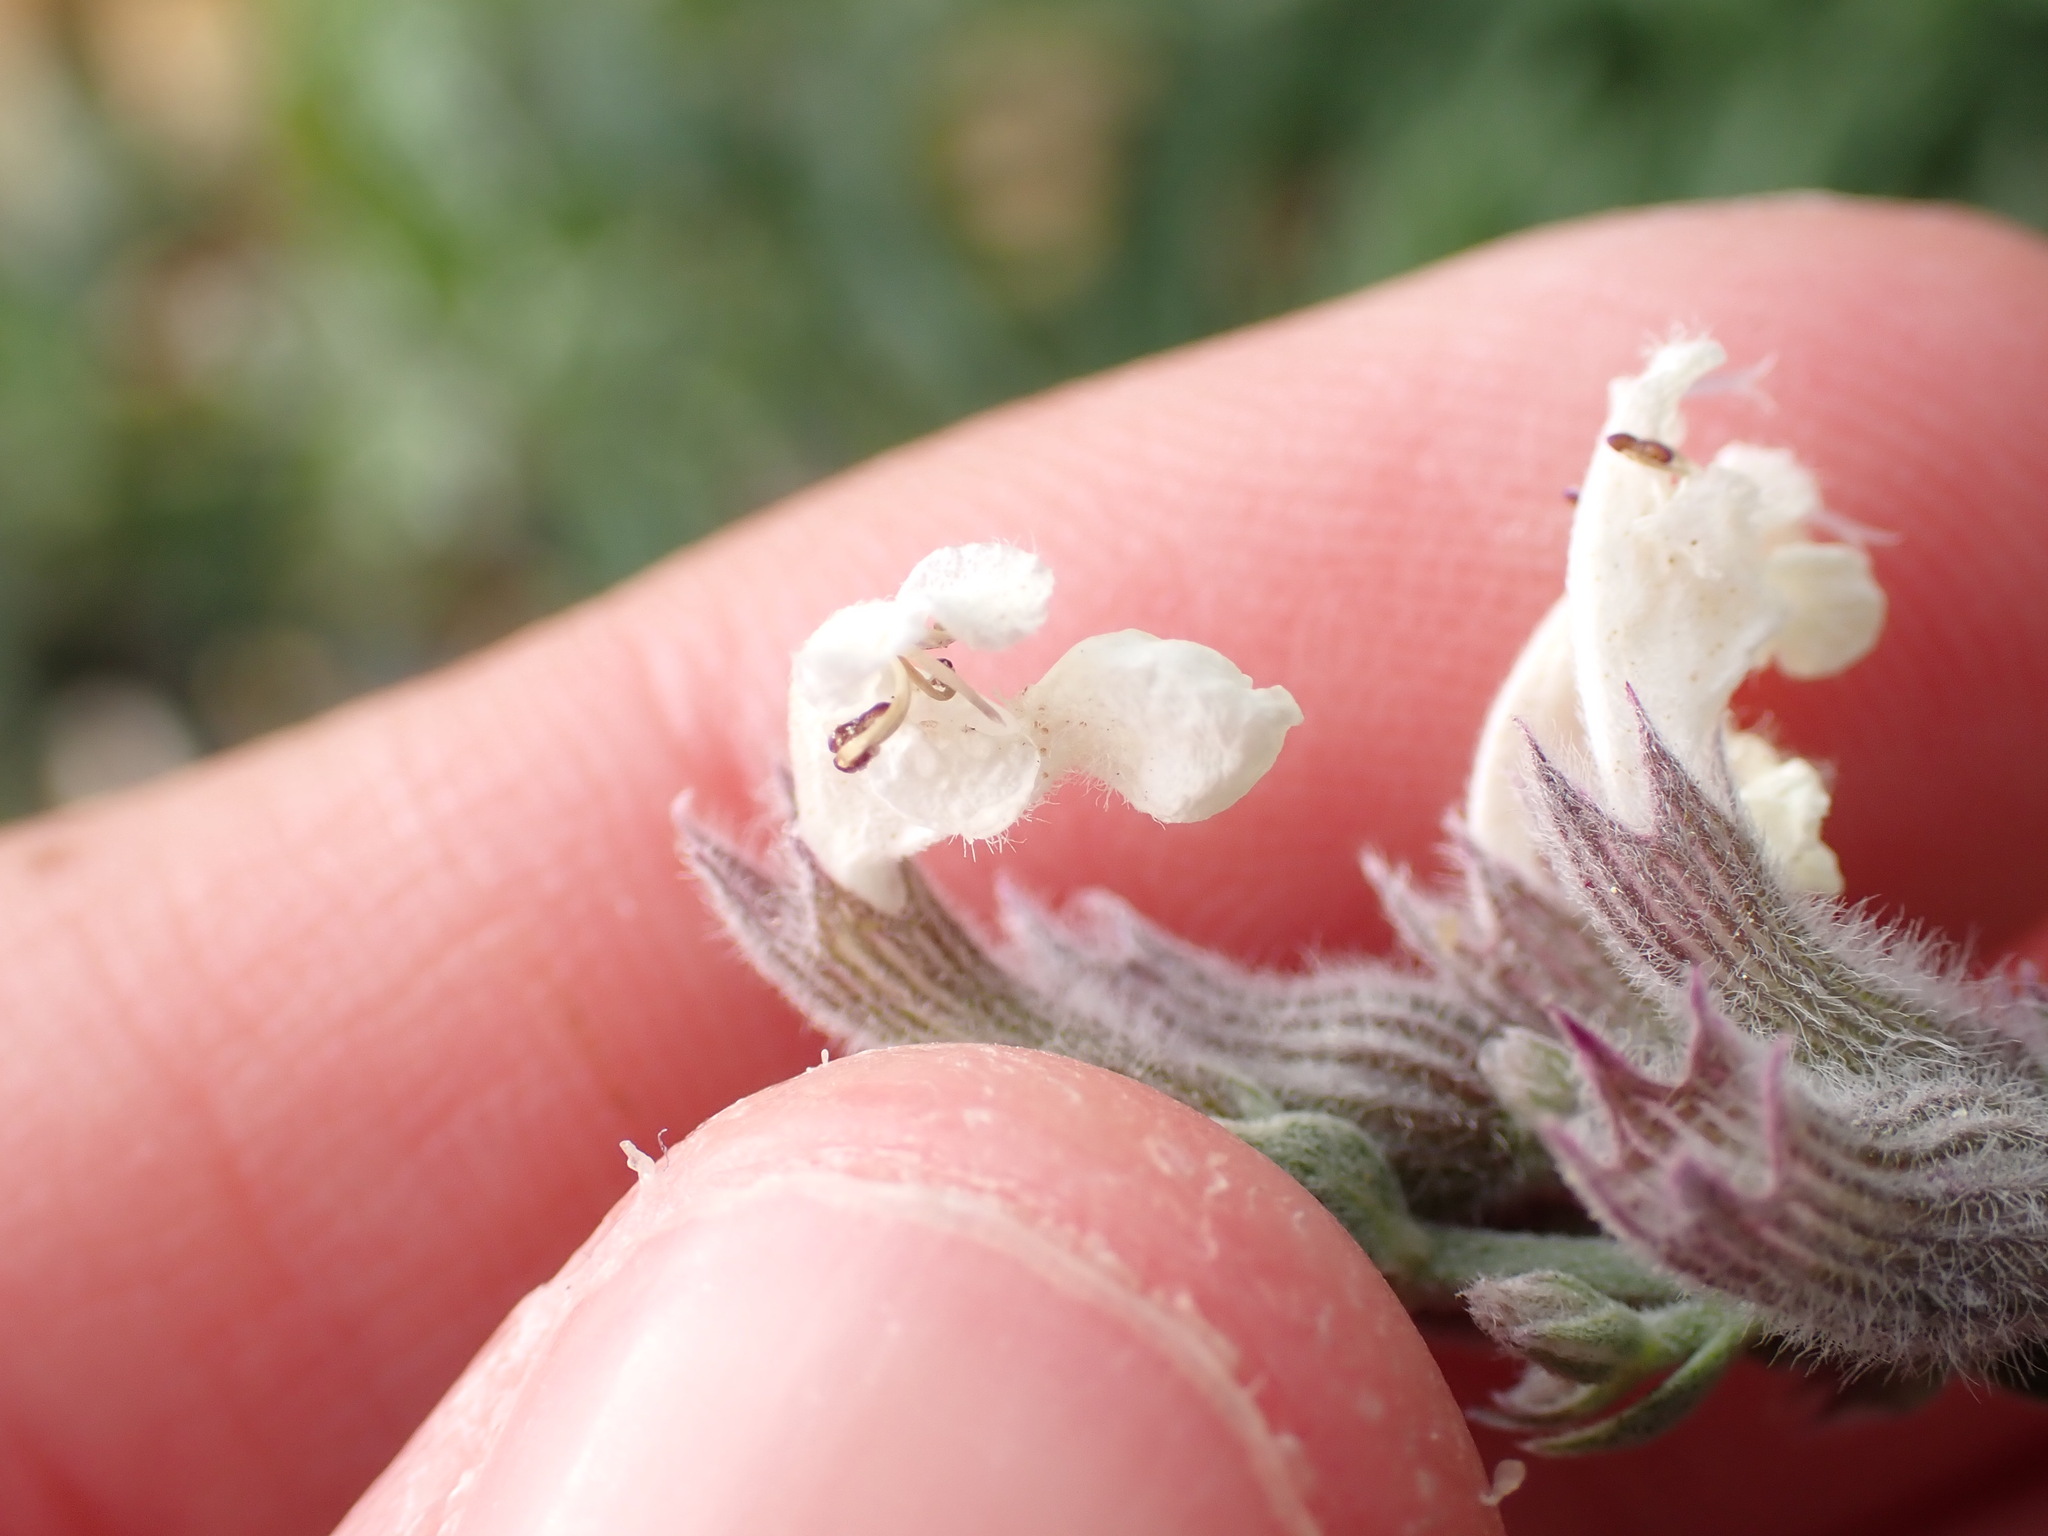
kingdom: Plantae
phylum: Tracheophyta
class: Magnoliopsida
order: Lamiales
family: Lamiaceae
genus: Nepeta
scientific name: Nepeta nepetella
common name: Lesser catmint
